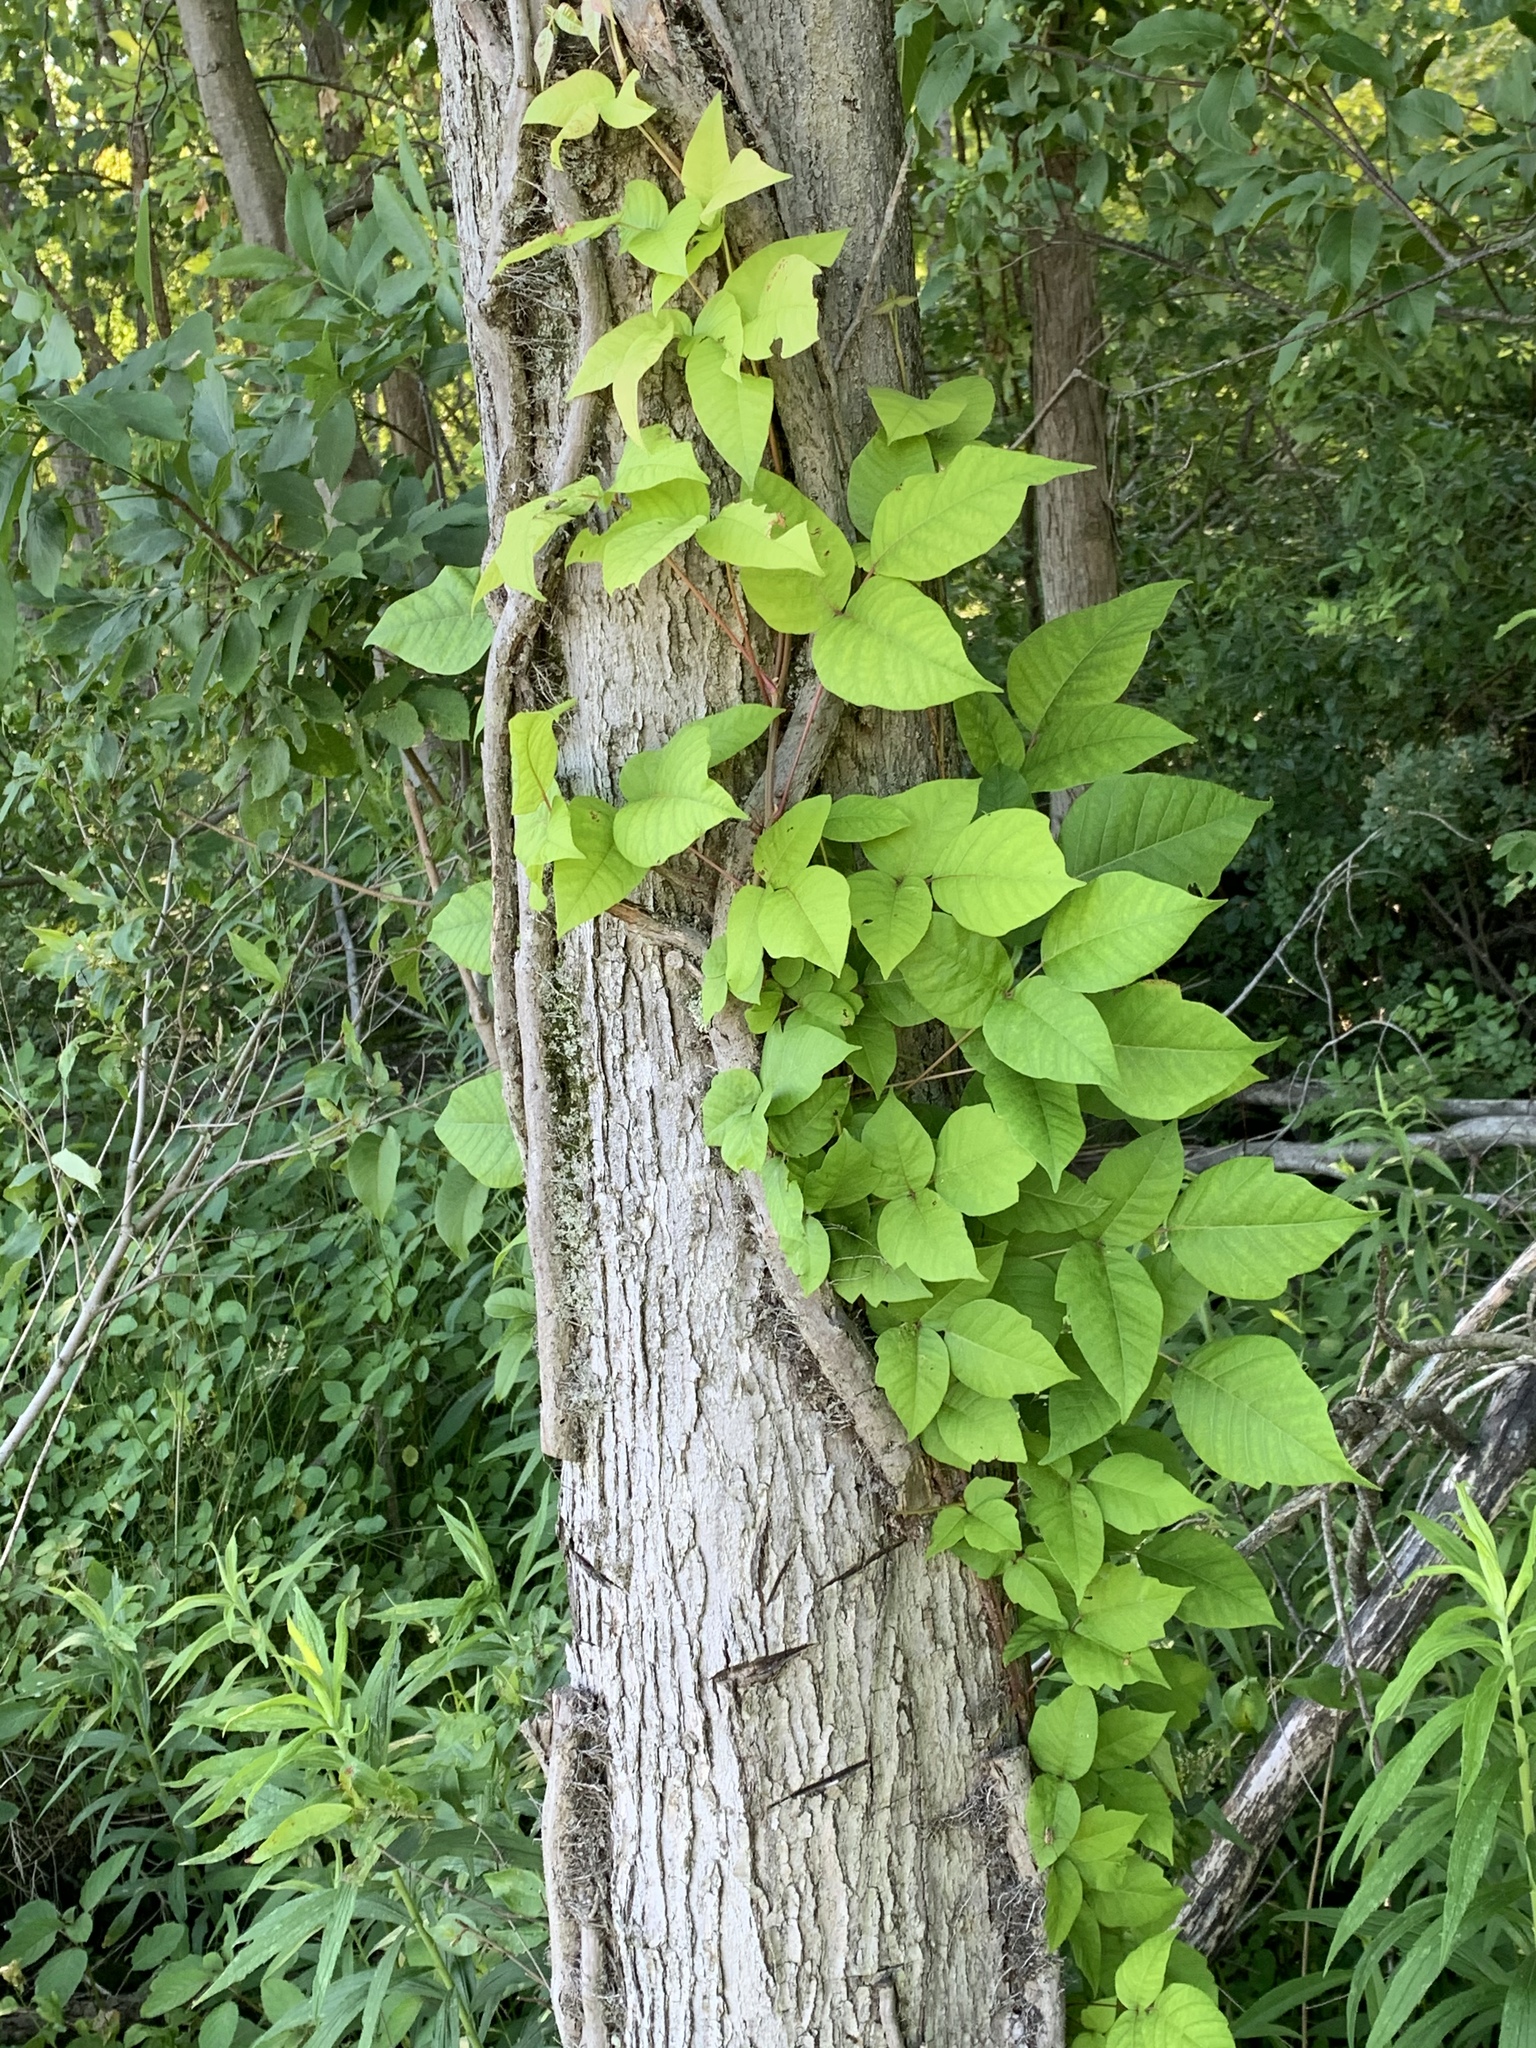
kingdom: Plantae
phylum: Tracheophyta
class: Magnoliopsida
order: Sapindales
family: Anacardiaceae
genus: Toxicodendron
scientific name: Toxicodendron radicans
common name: Poison ivy
